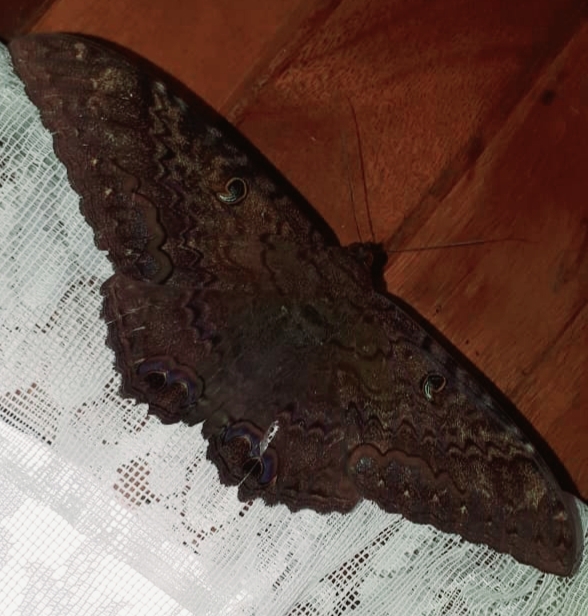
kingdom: Animalia
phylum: Arthropoda
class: Insecta
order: Lepidoptera
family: Erebidae
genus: Ascalapha
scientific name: Ascalapha odorata
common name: Black witch
